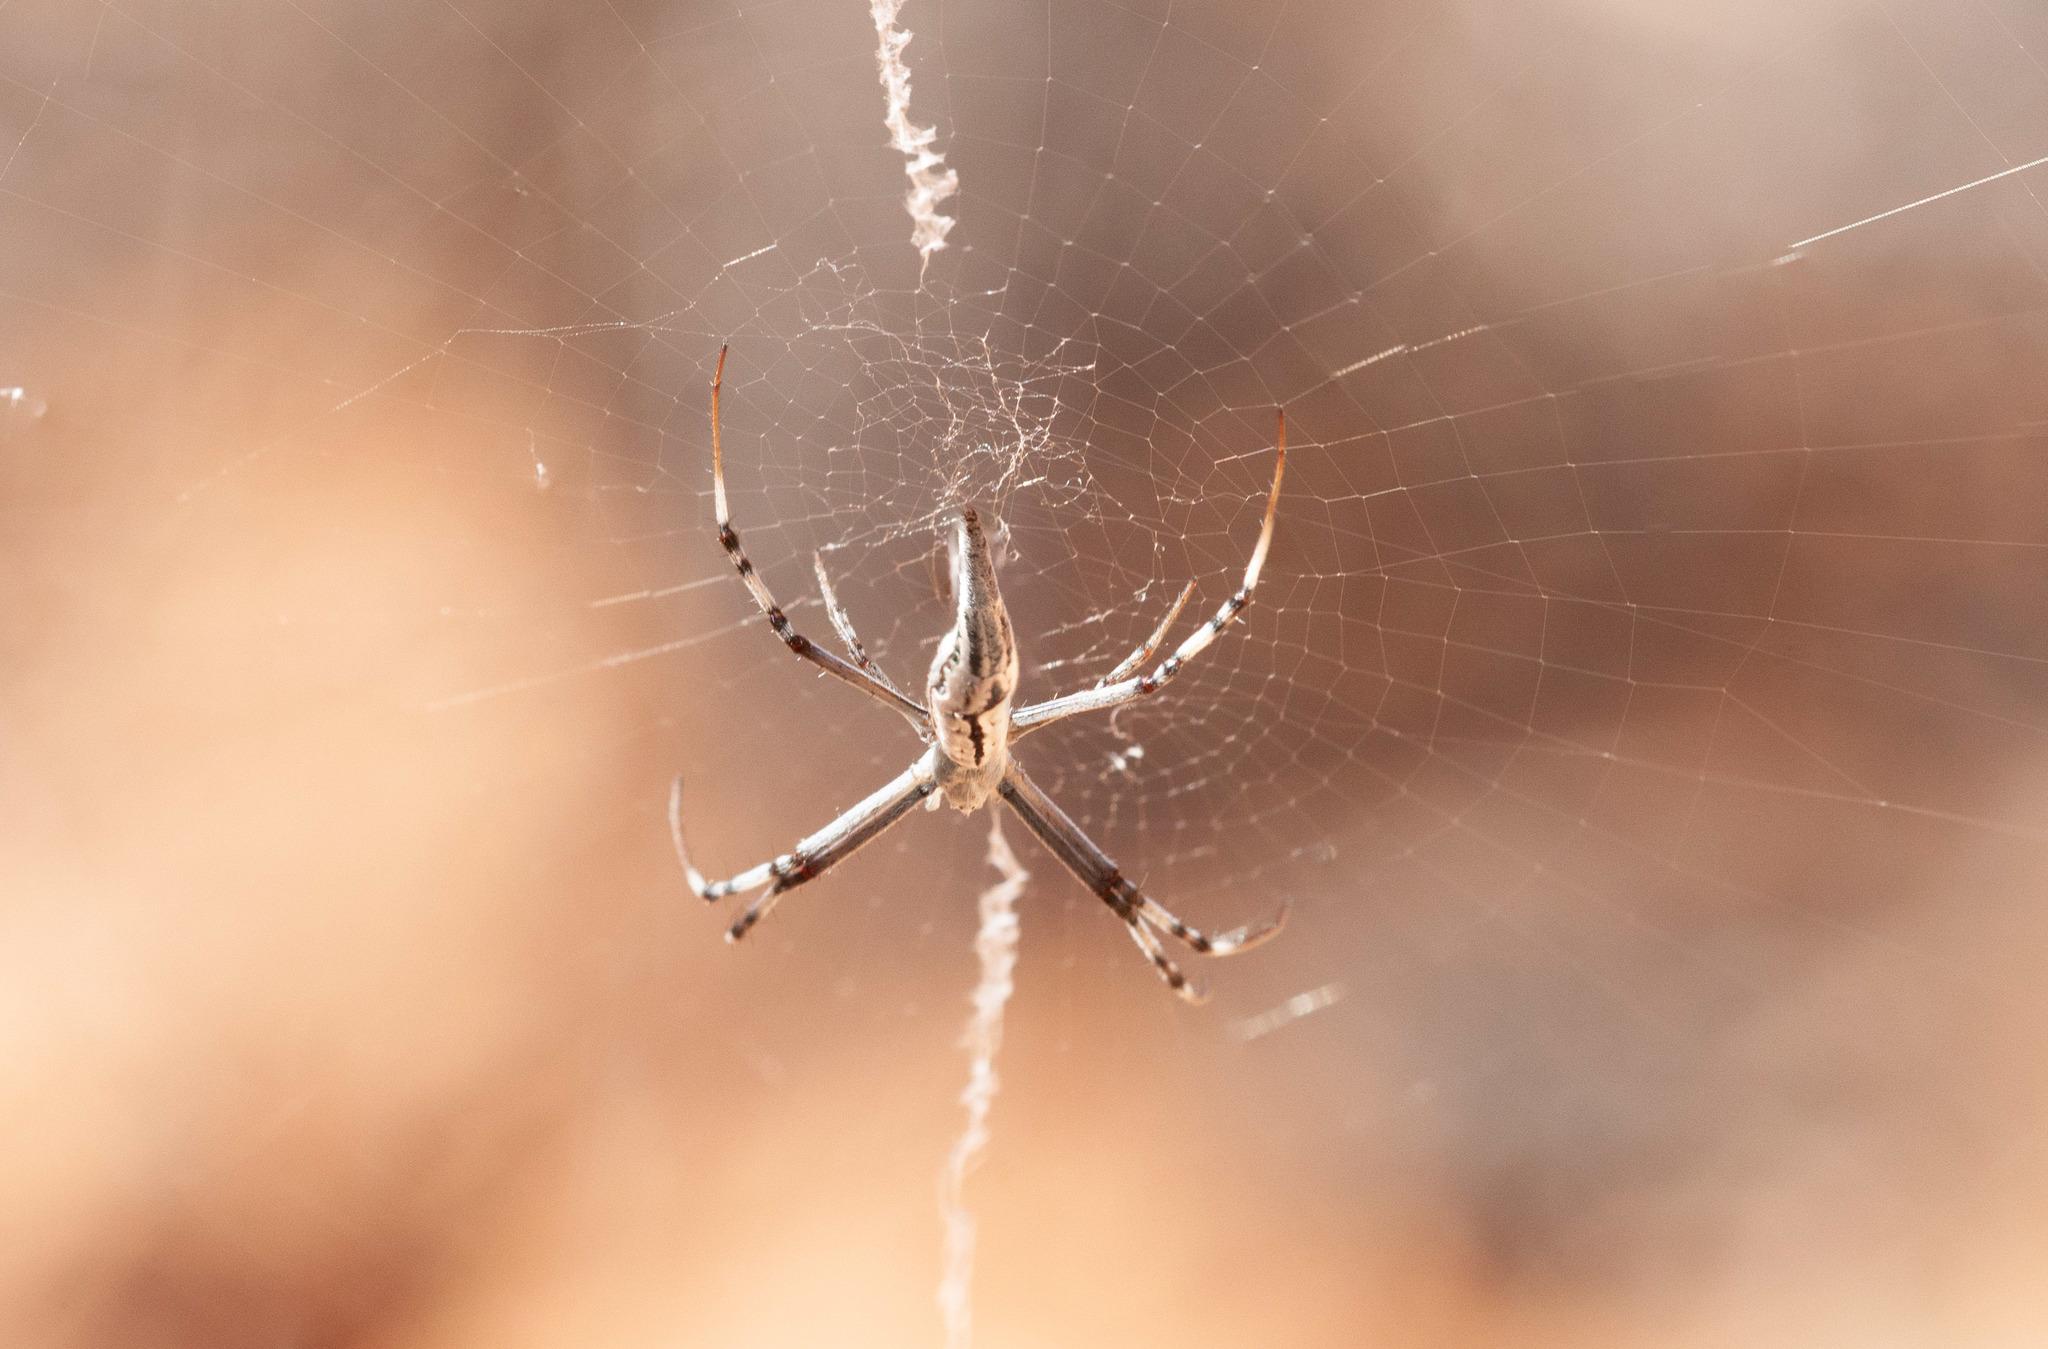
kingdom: Animalia
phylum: Arthropoda
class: Arachnida
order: Araneae
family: Araneidae
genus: Argiope
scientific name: Argiope protensa
